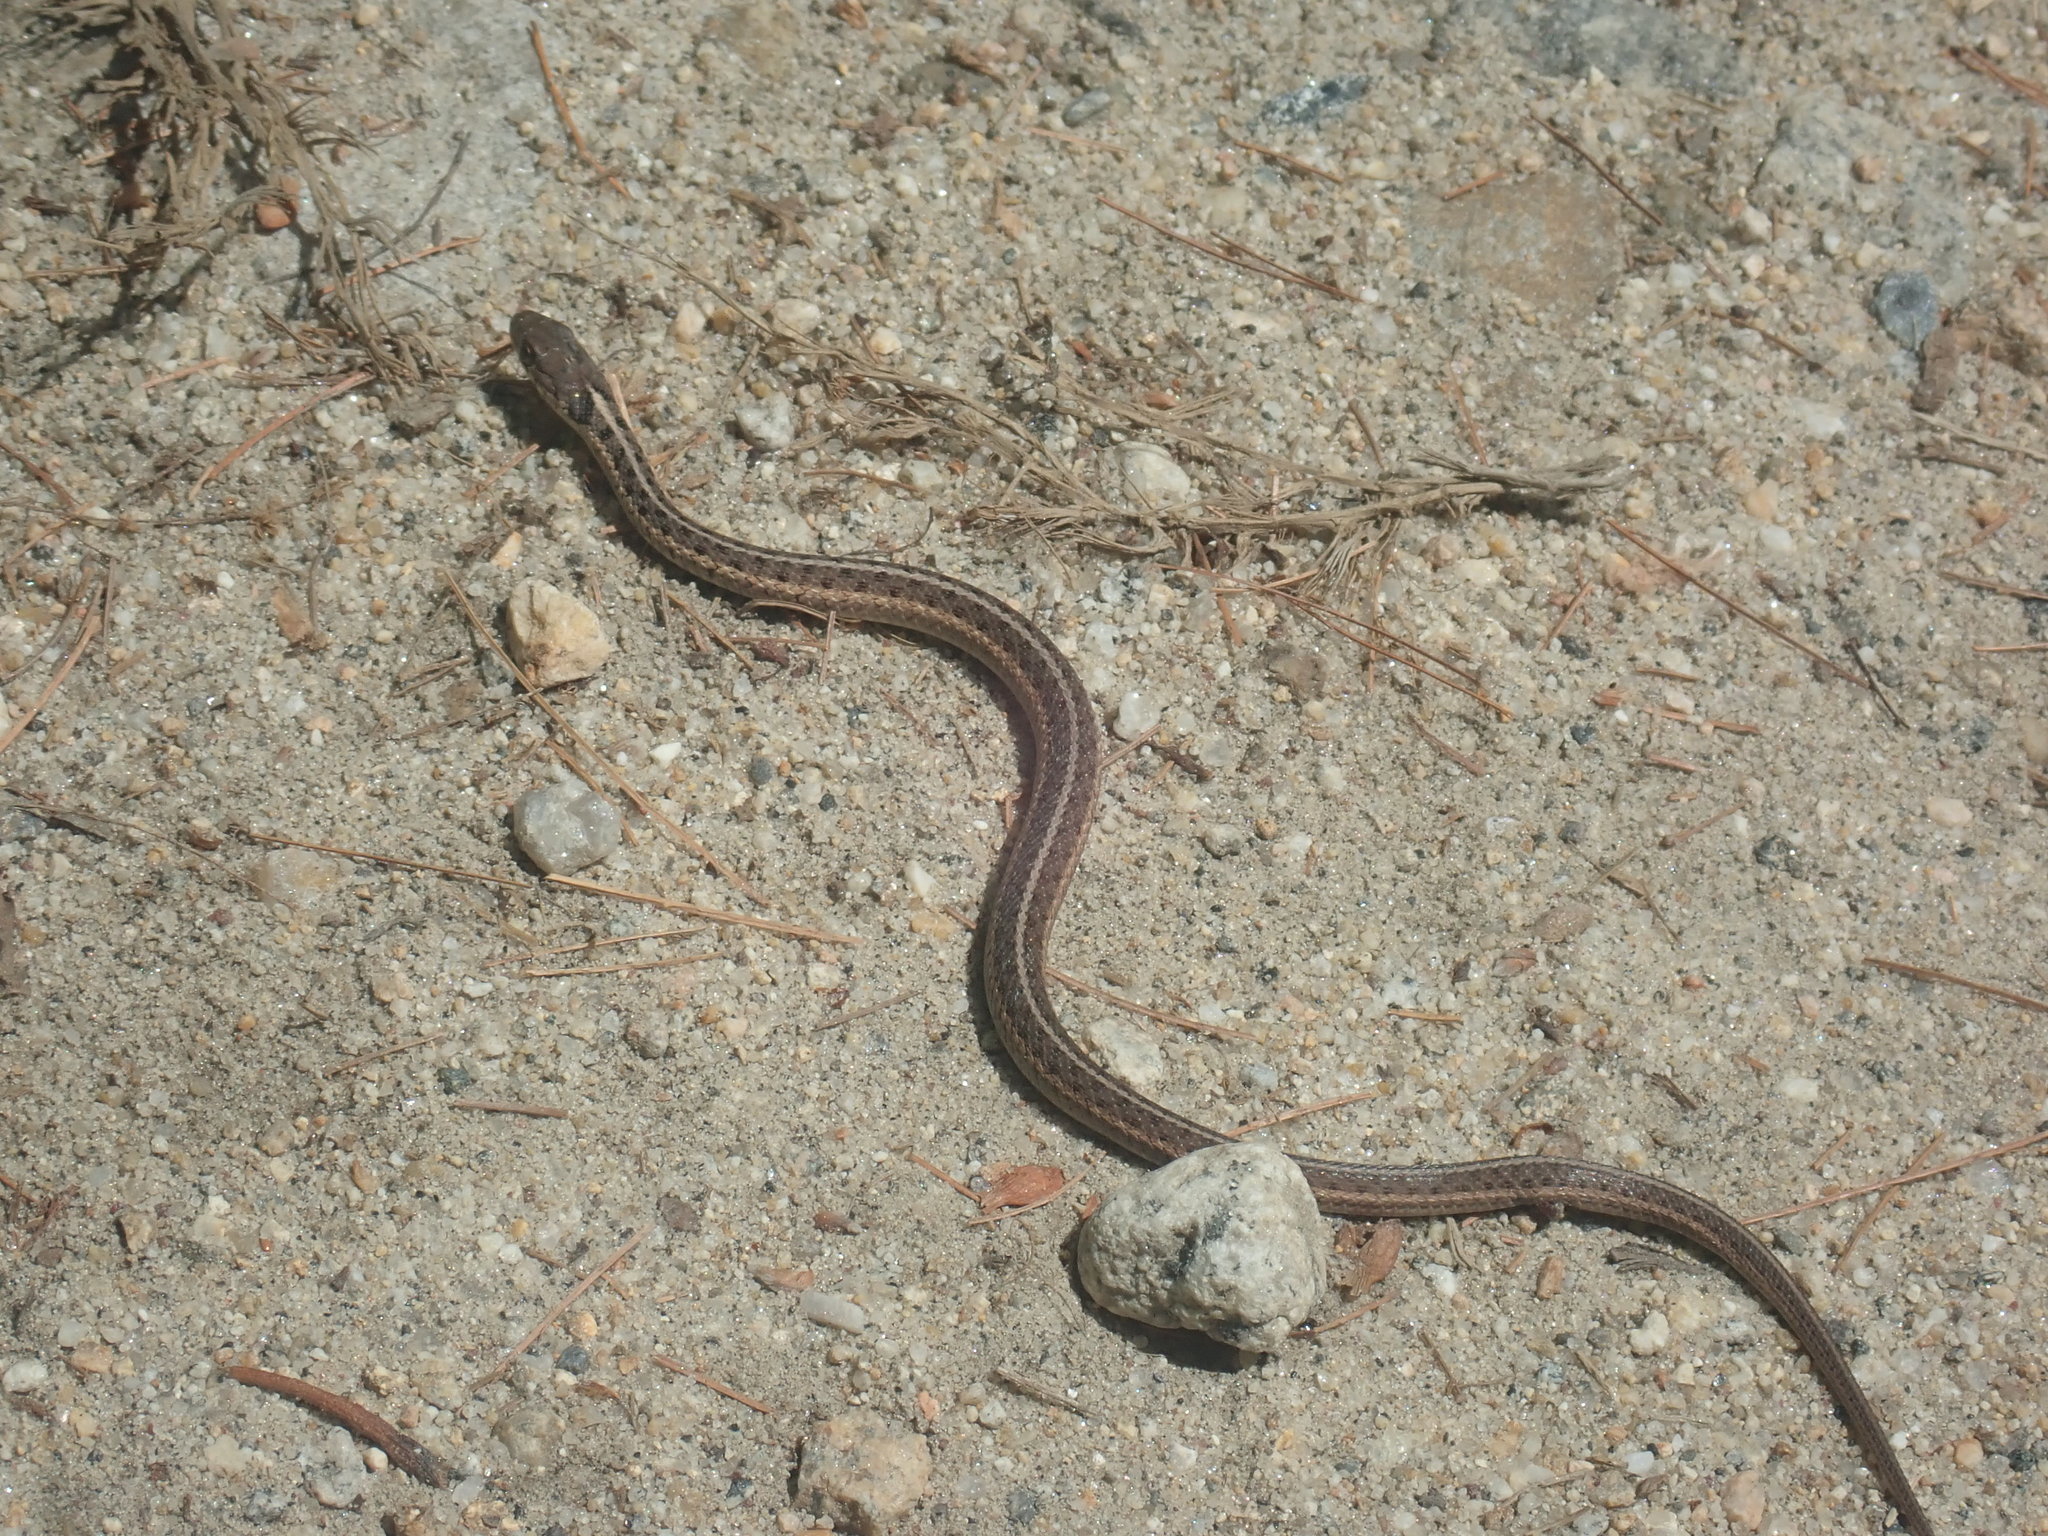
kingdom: Animalia
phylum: Chordata
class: Squamata
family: Colubridae
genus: Thamnophis
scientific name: Thamnophis sirtalis
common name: Common garter snake
